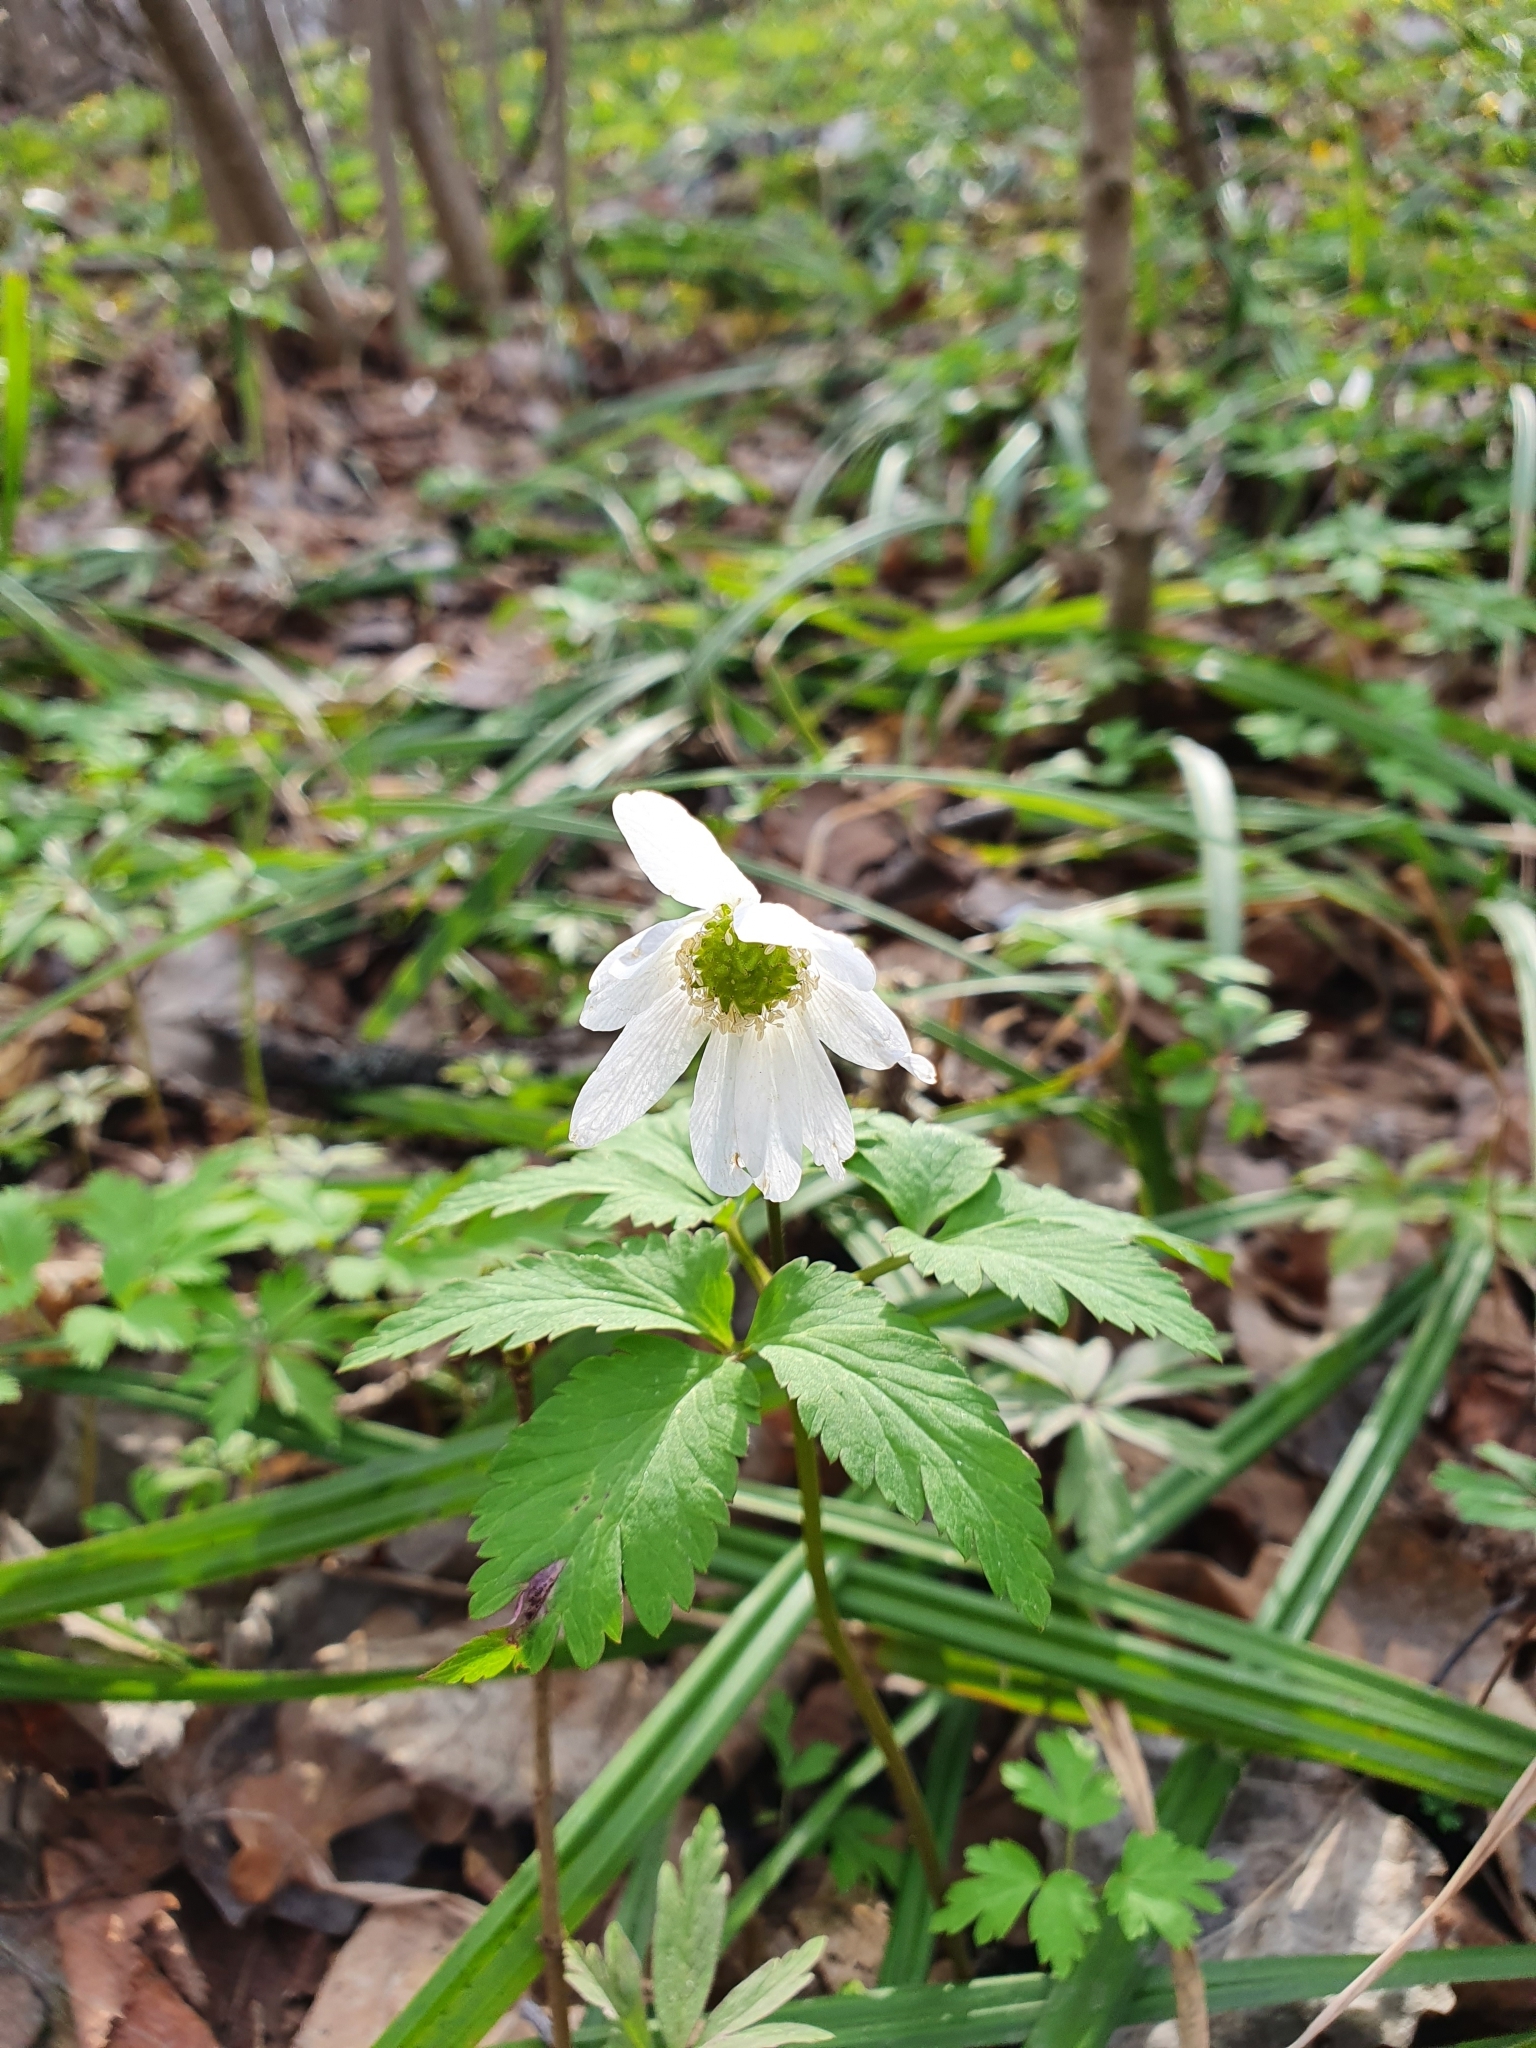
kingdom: Plantae
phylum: Tracheophyta
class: Magnoliopsida
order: Ranunculales
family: Ranunculaceae
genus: Anemone
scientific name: Anemone altaica
